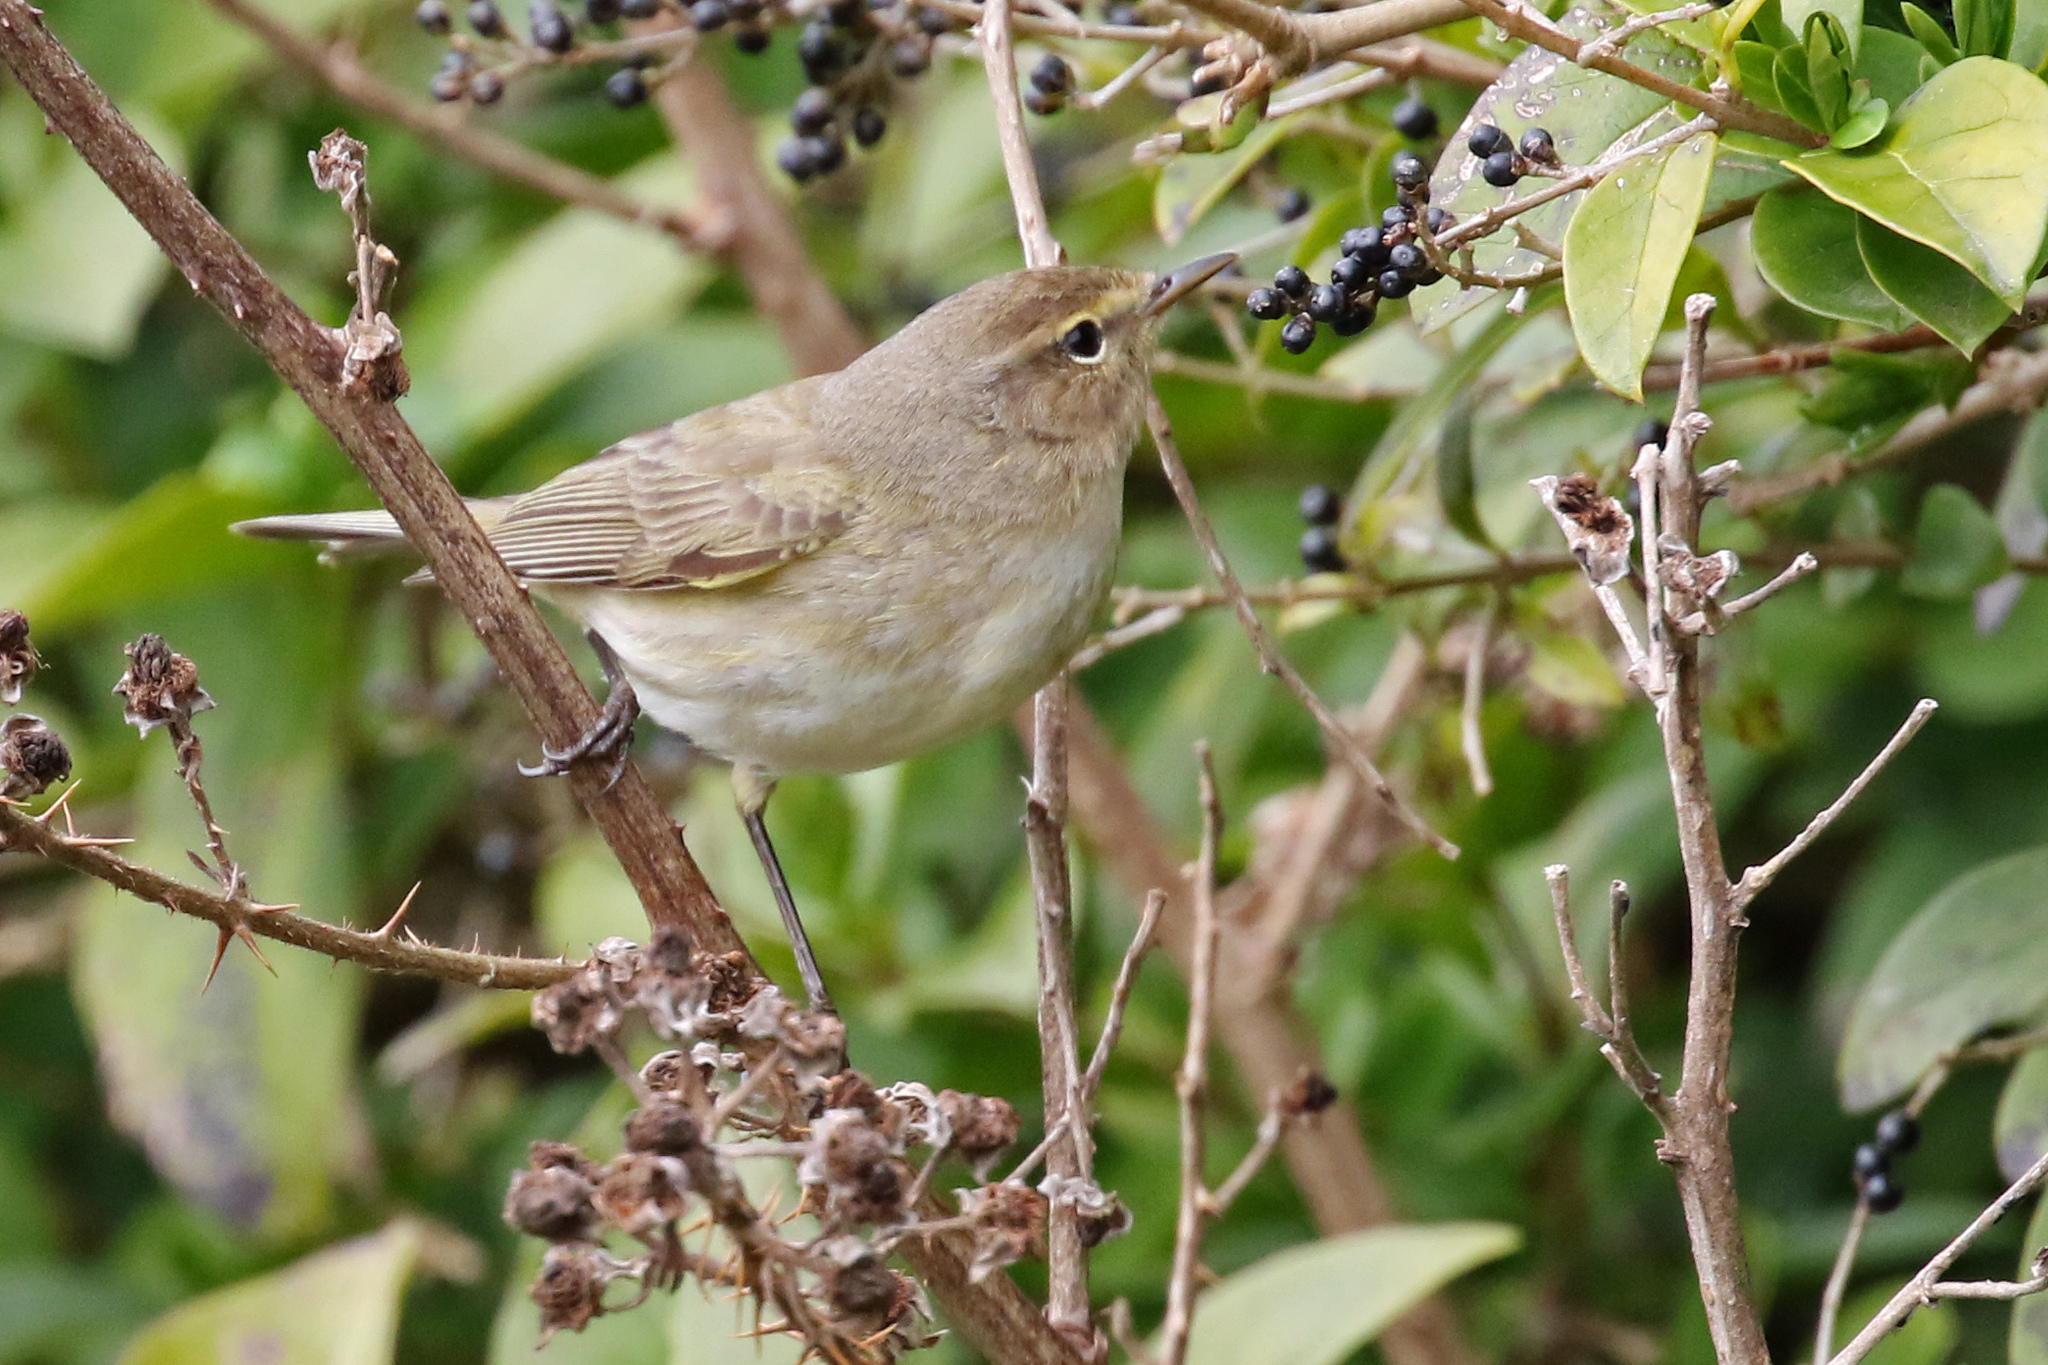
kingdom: Animalia
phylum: Chordata
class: Aves
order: Passeriformes
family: Phylloscopidae
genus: Phylloscopus
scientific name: Phylloscopus collybita
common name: Common chiffchaff
